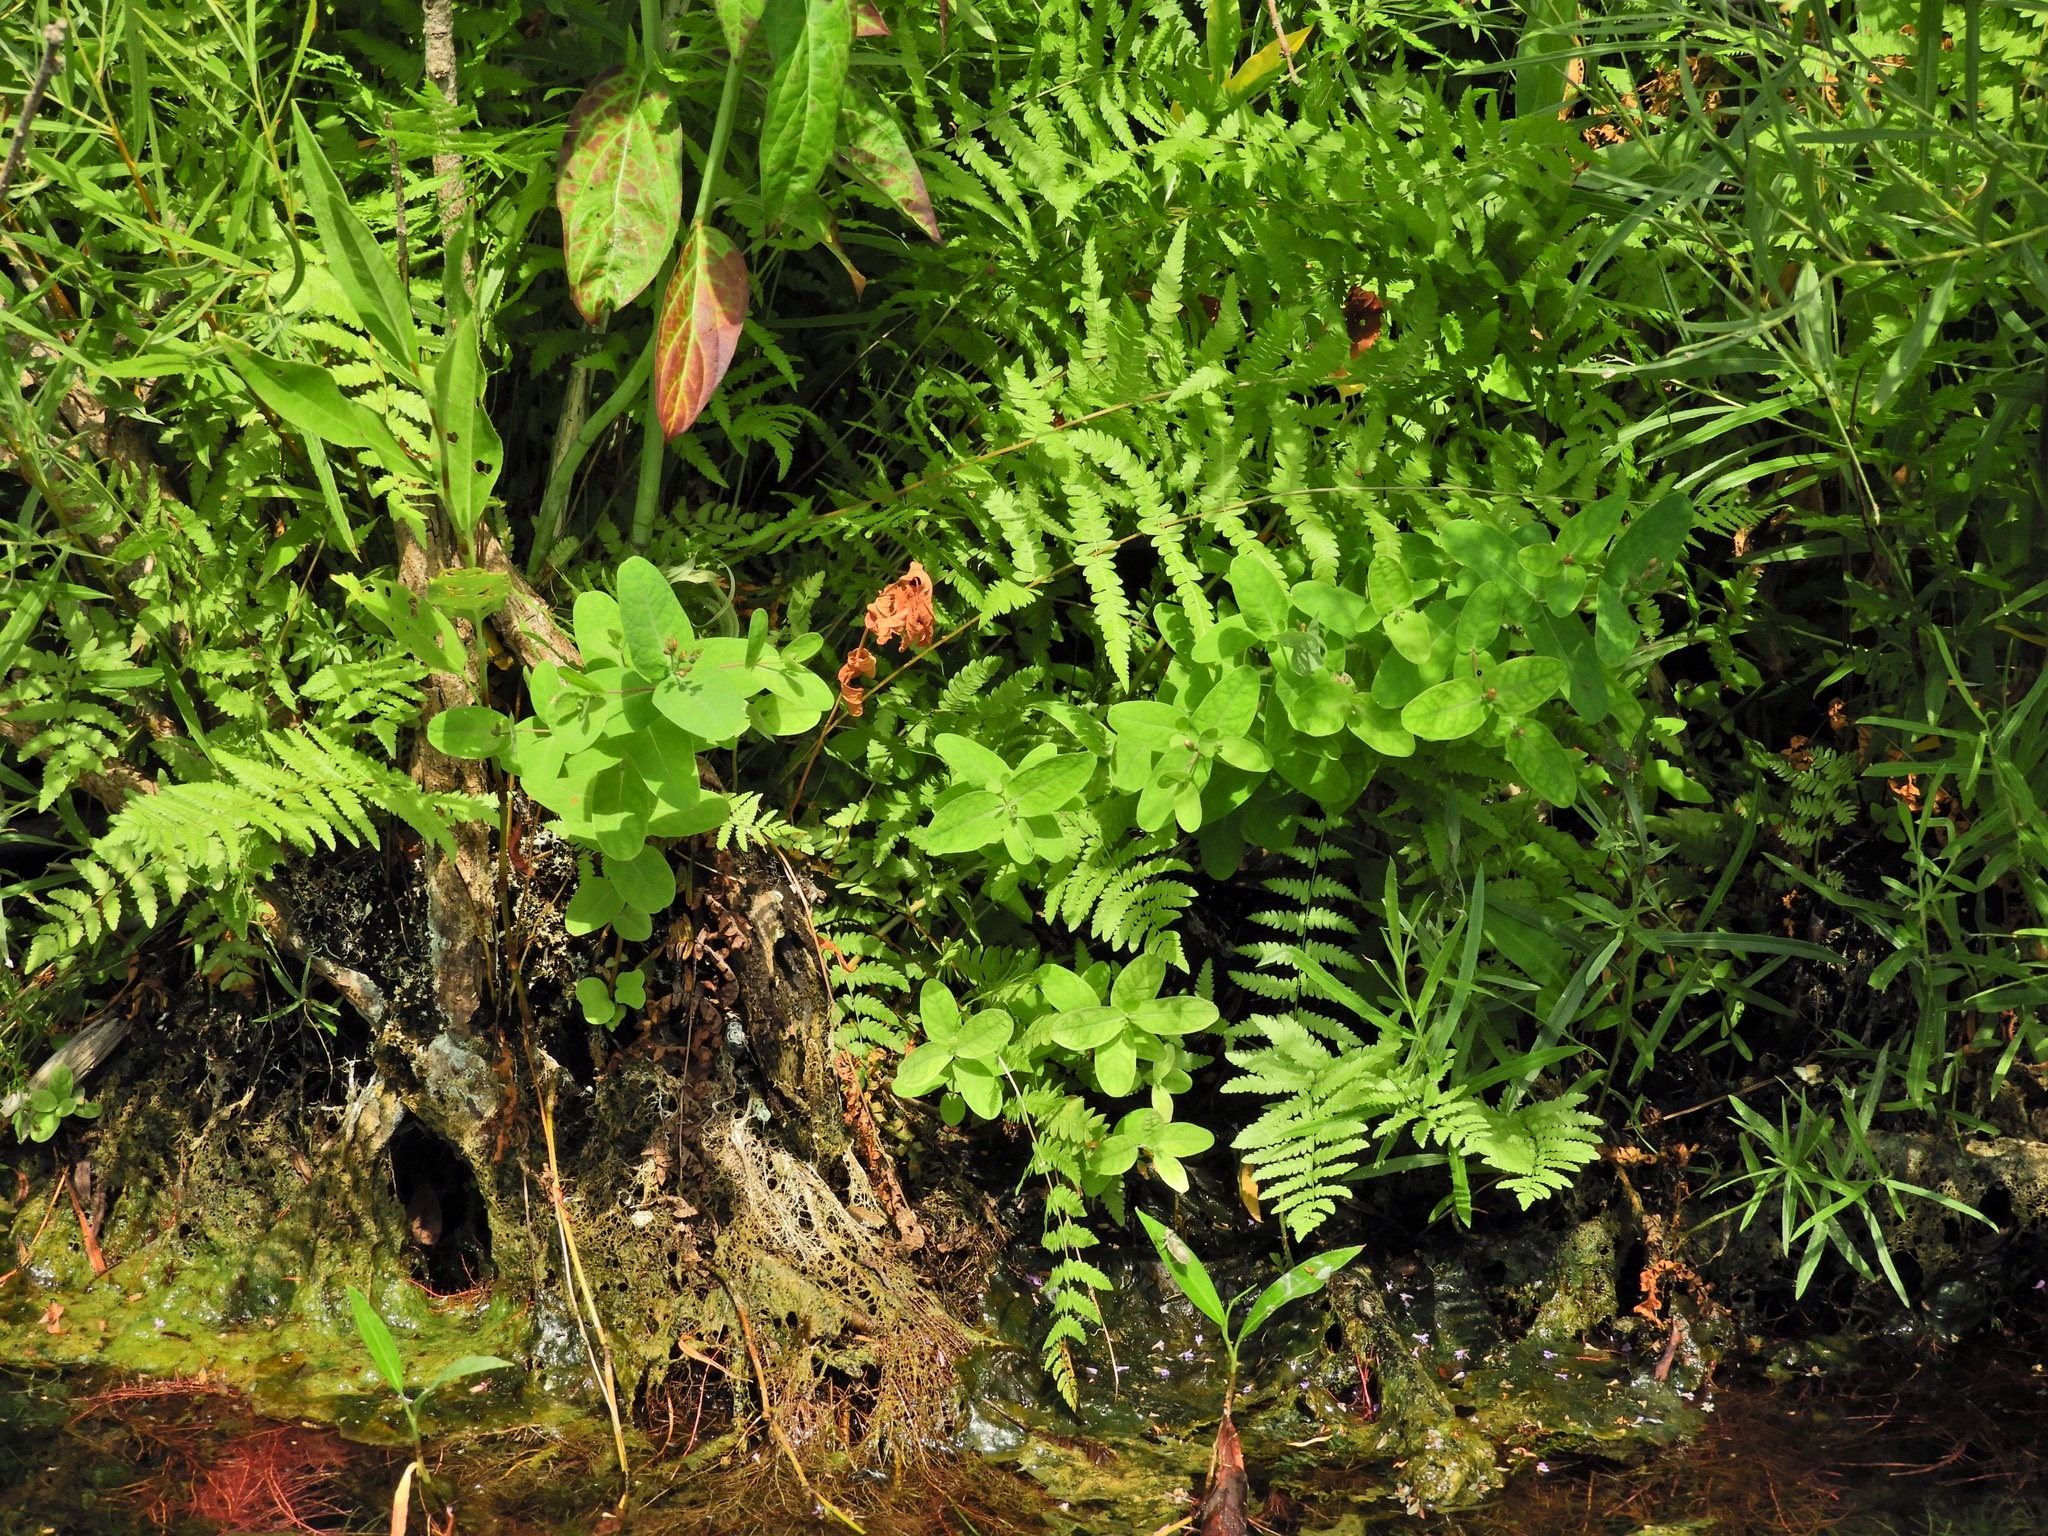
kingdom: Plantae
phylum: Tracheophyta
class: Polypodiopsida
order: Polypodiales
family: Thelypteridaceae
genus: Thelypteris
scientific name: Thelypteris palustris
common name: Marsh fern
